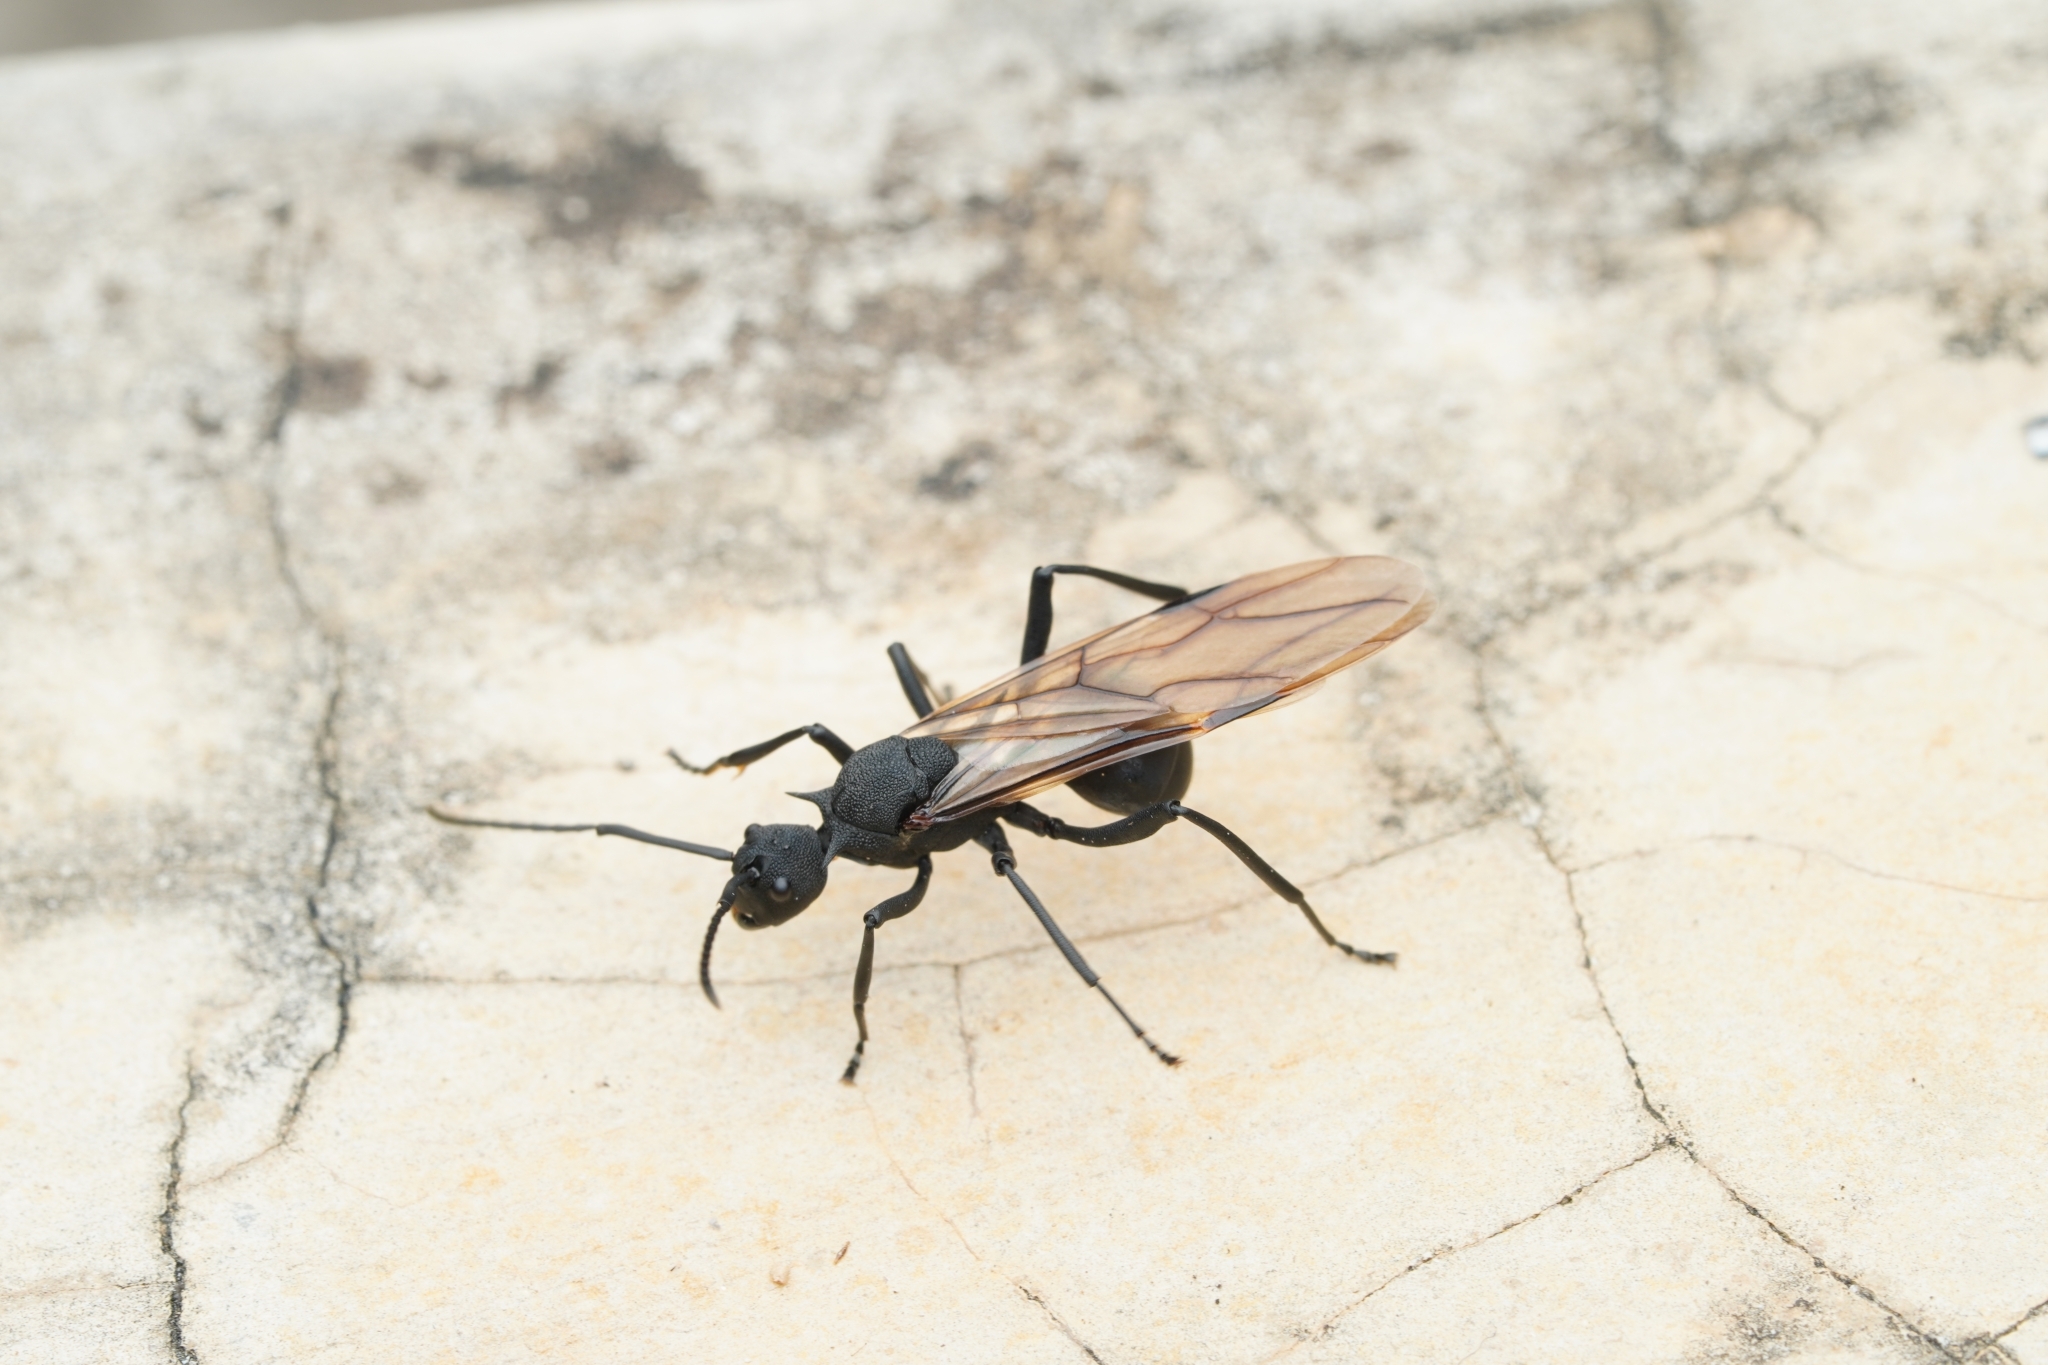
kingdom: Animalia
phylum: Arthropoda
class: Insecta
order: Hymenoptera
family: Formicidae
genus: Polyrhachis
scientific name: Polyrhachis armata
